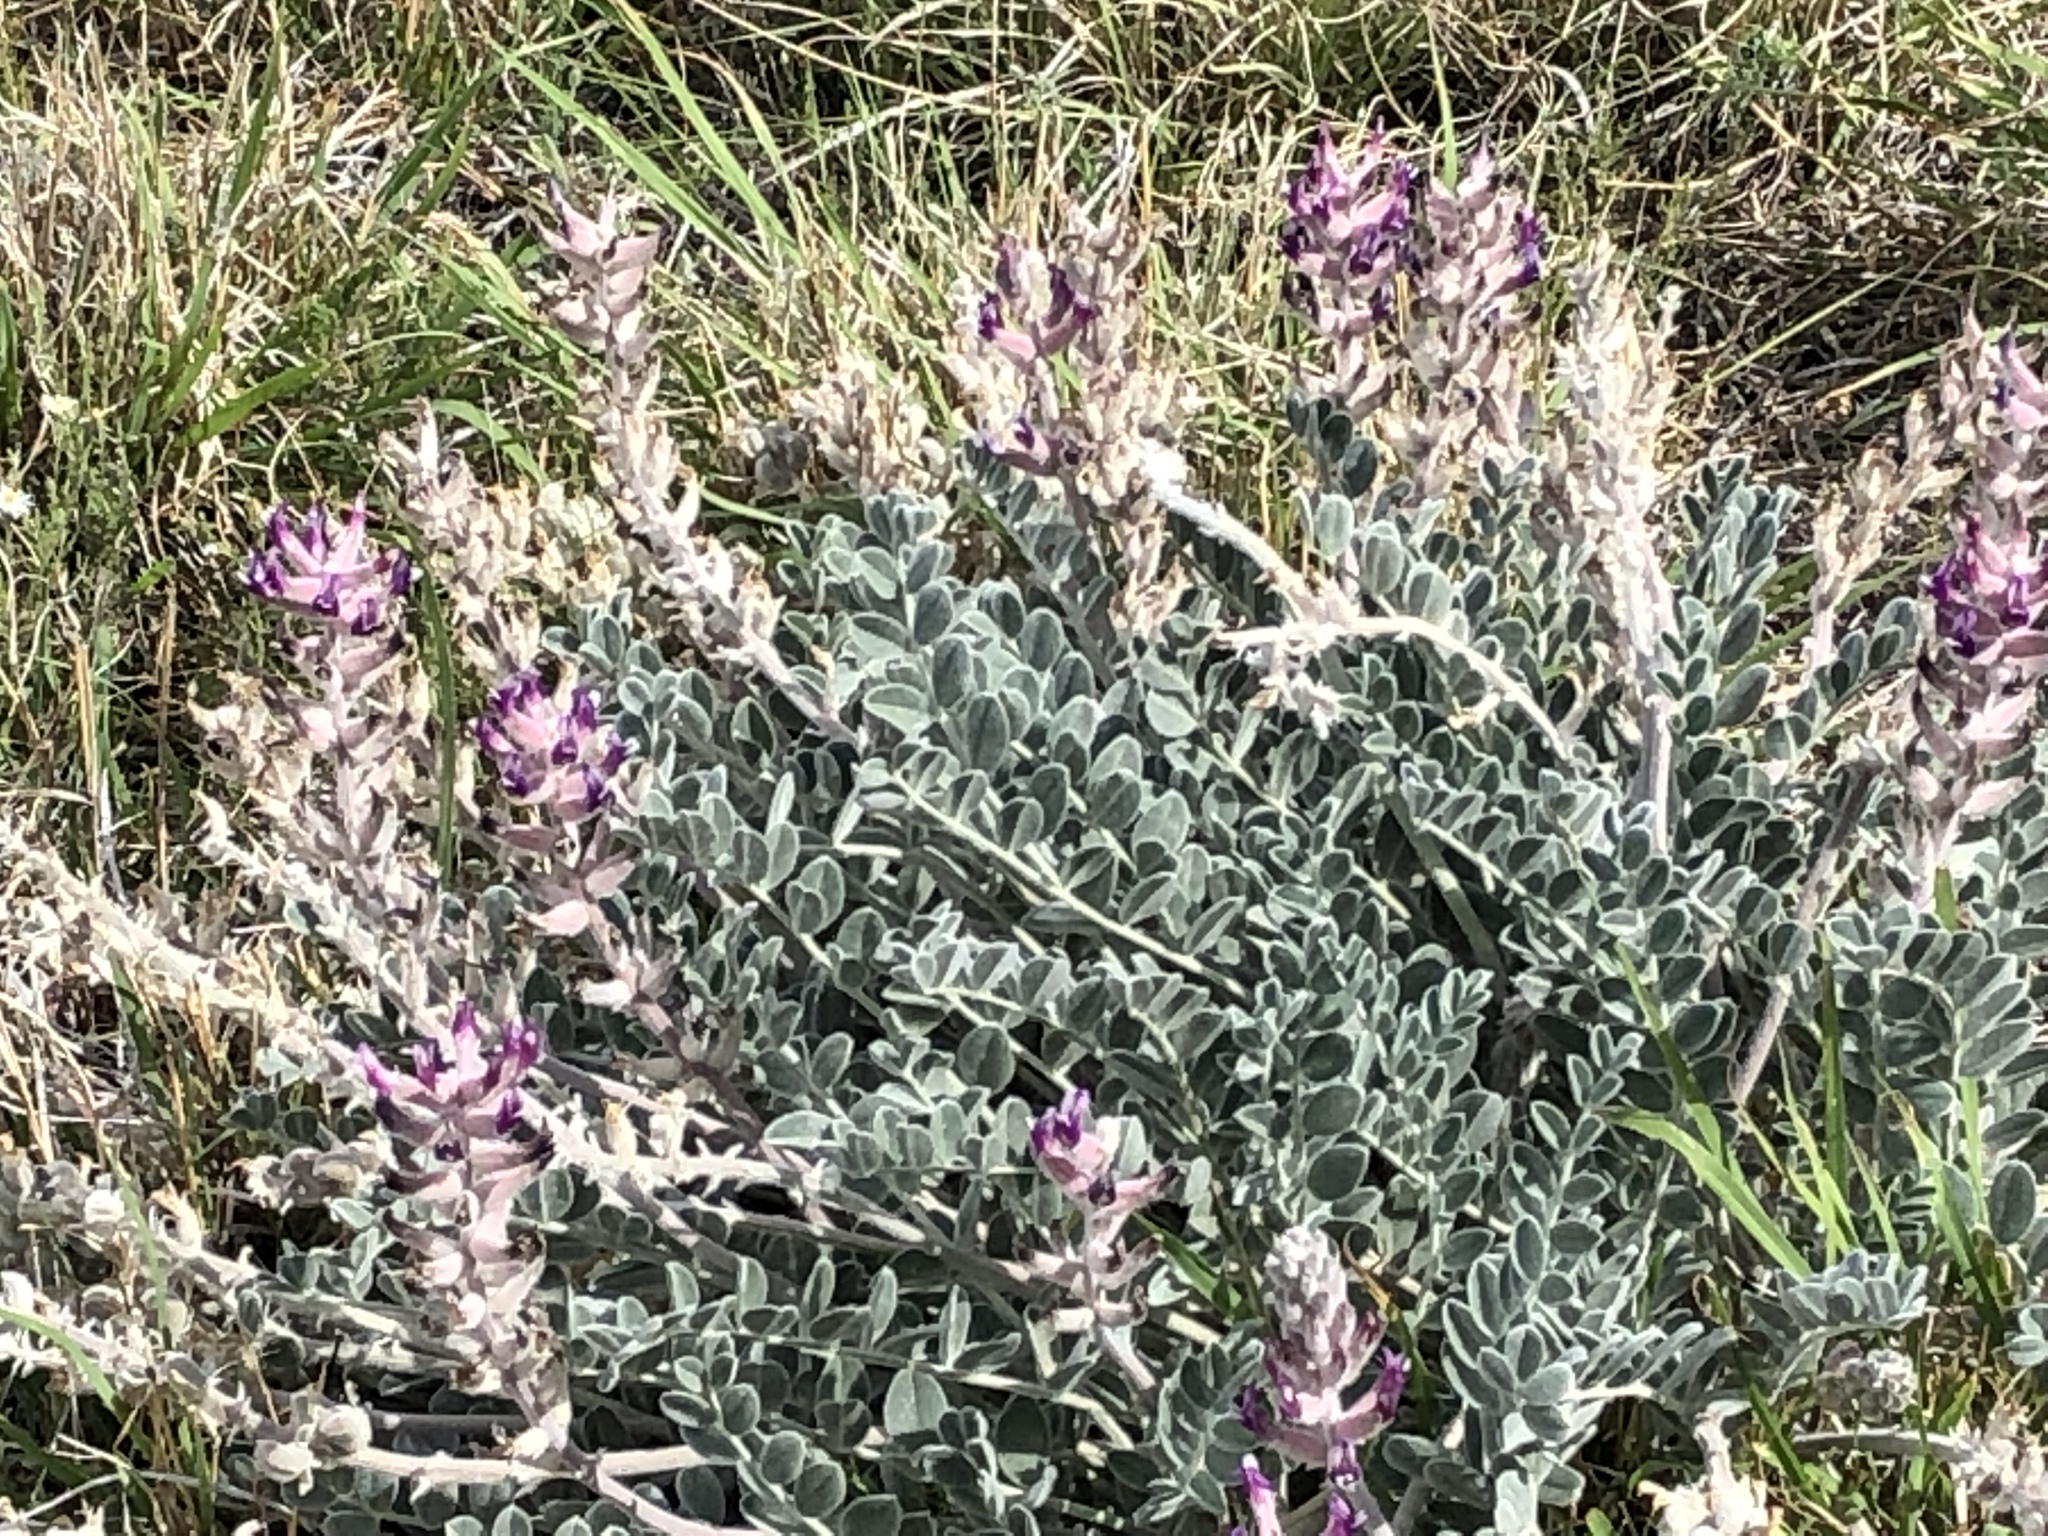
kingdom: Plantae
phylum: Tracheophyta
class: Magnoliopsida
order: Fabales
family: Fabaceae
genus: Astragalus
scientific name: Astragalus mollissimus
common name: Woolly locoweed
